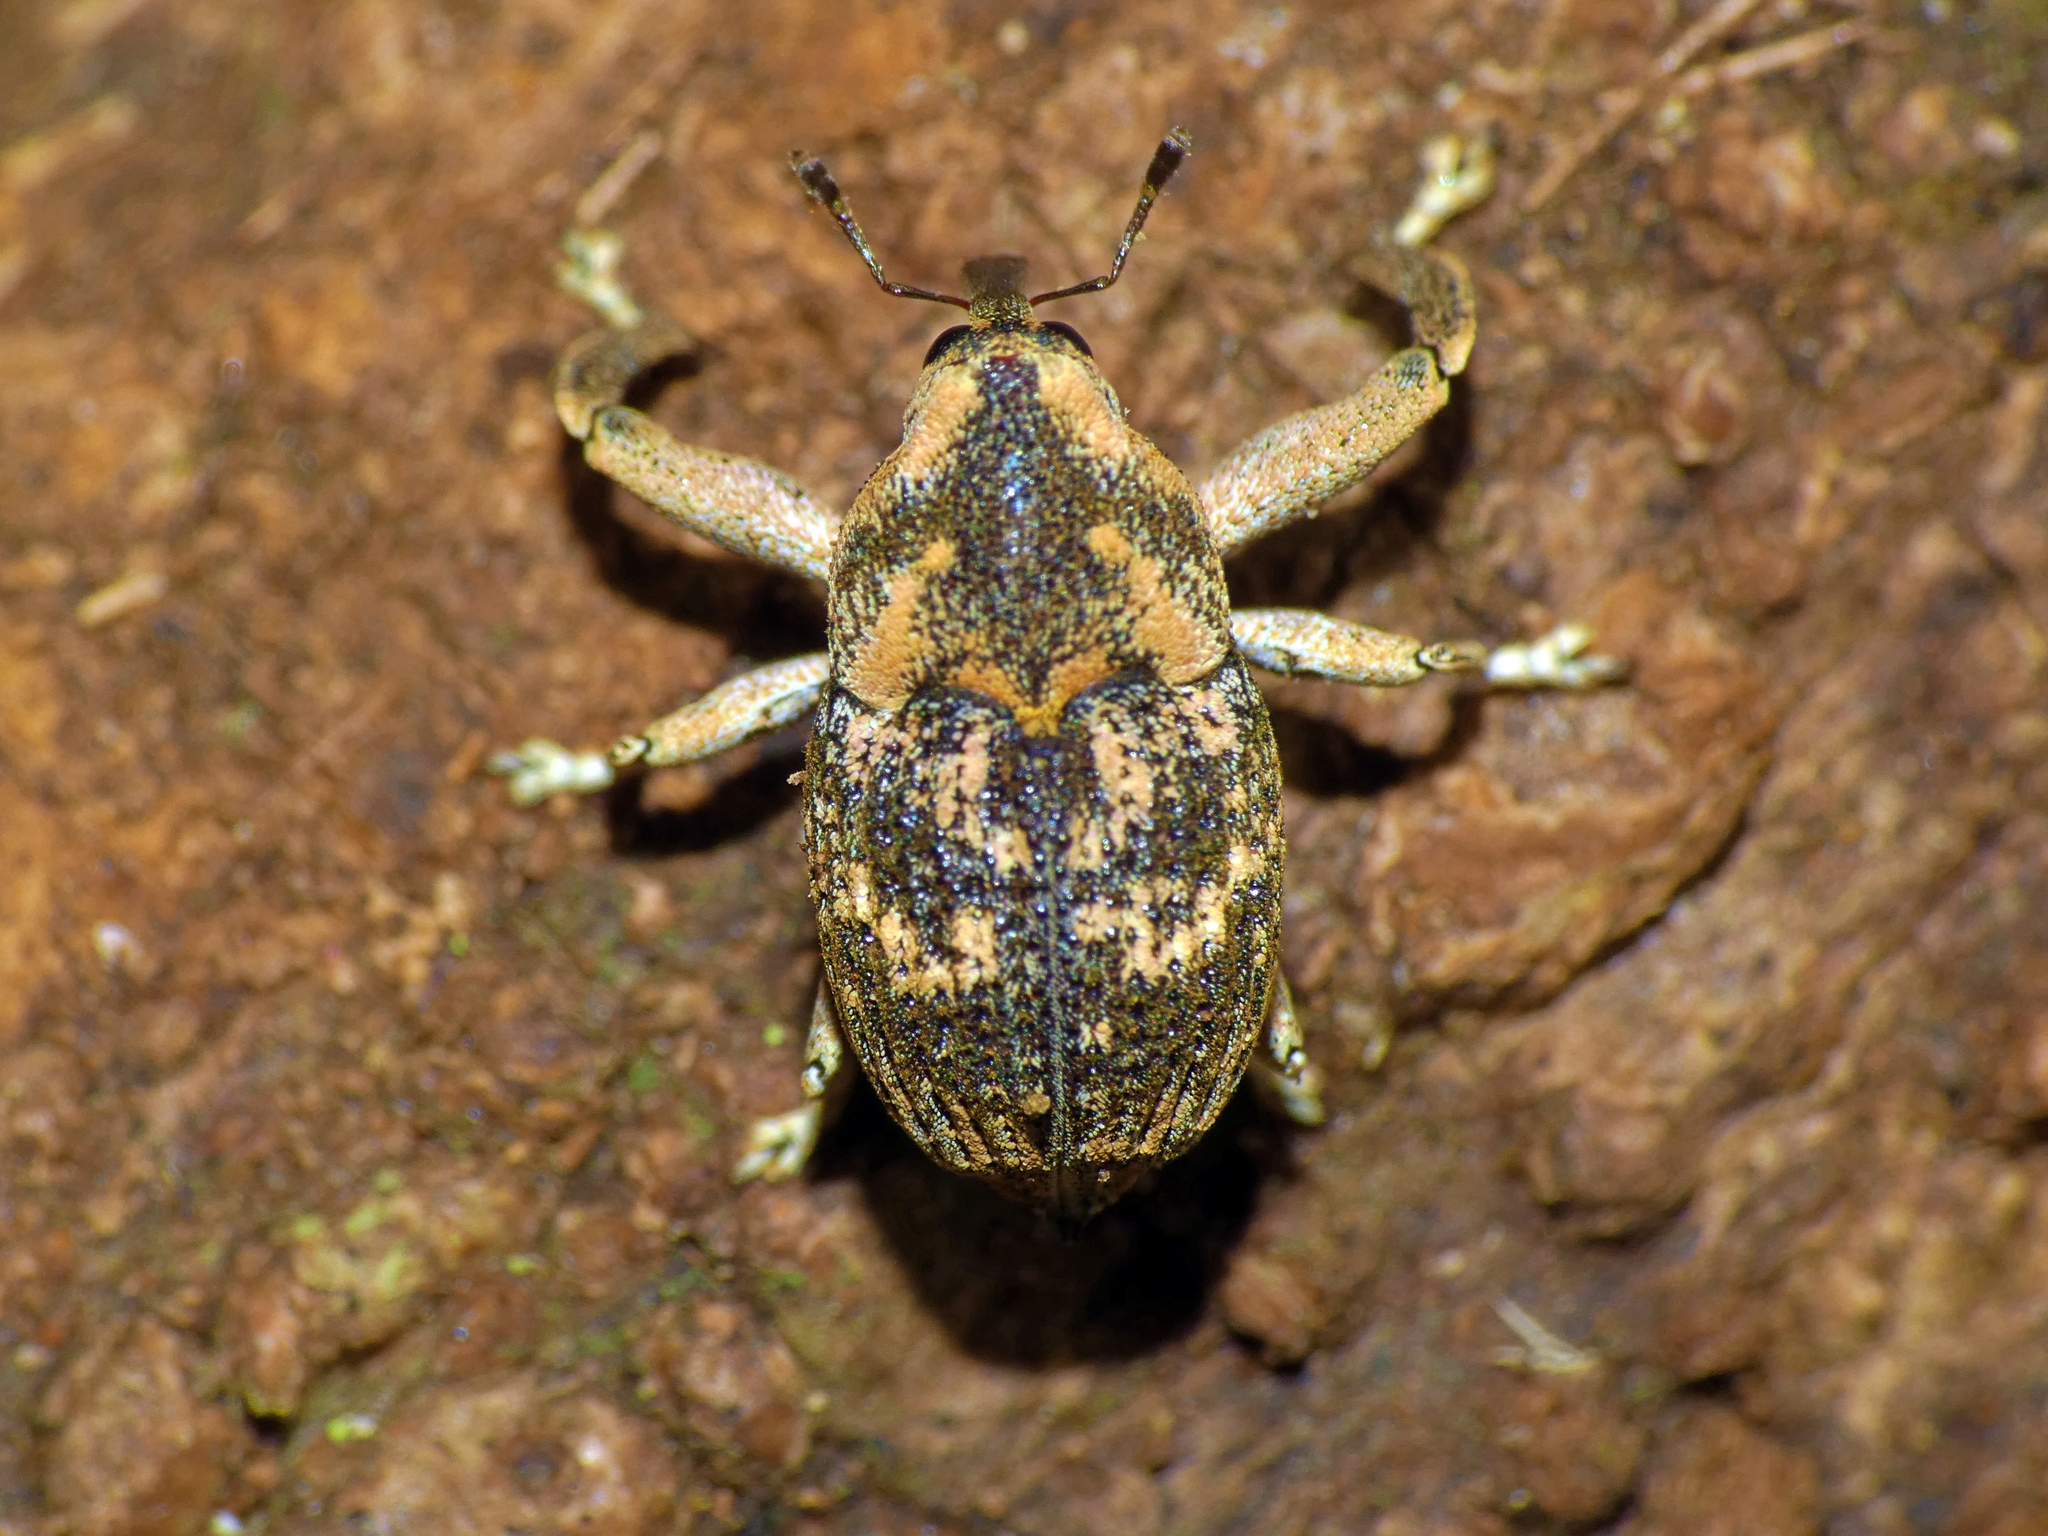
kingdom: Animalia
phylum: Arthropoda
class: Insecta
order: Coleoptera
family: Curculionidae
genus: Eutyrhinus
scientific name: Eutyrhinus meditabundus
